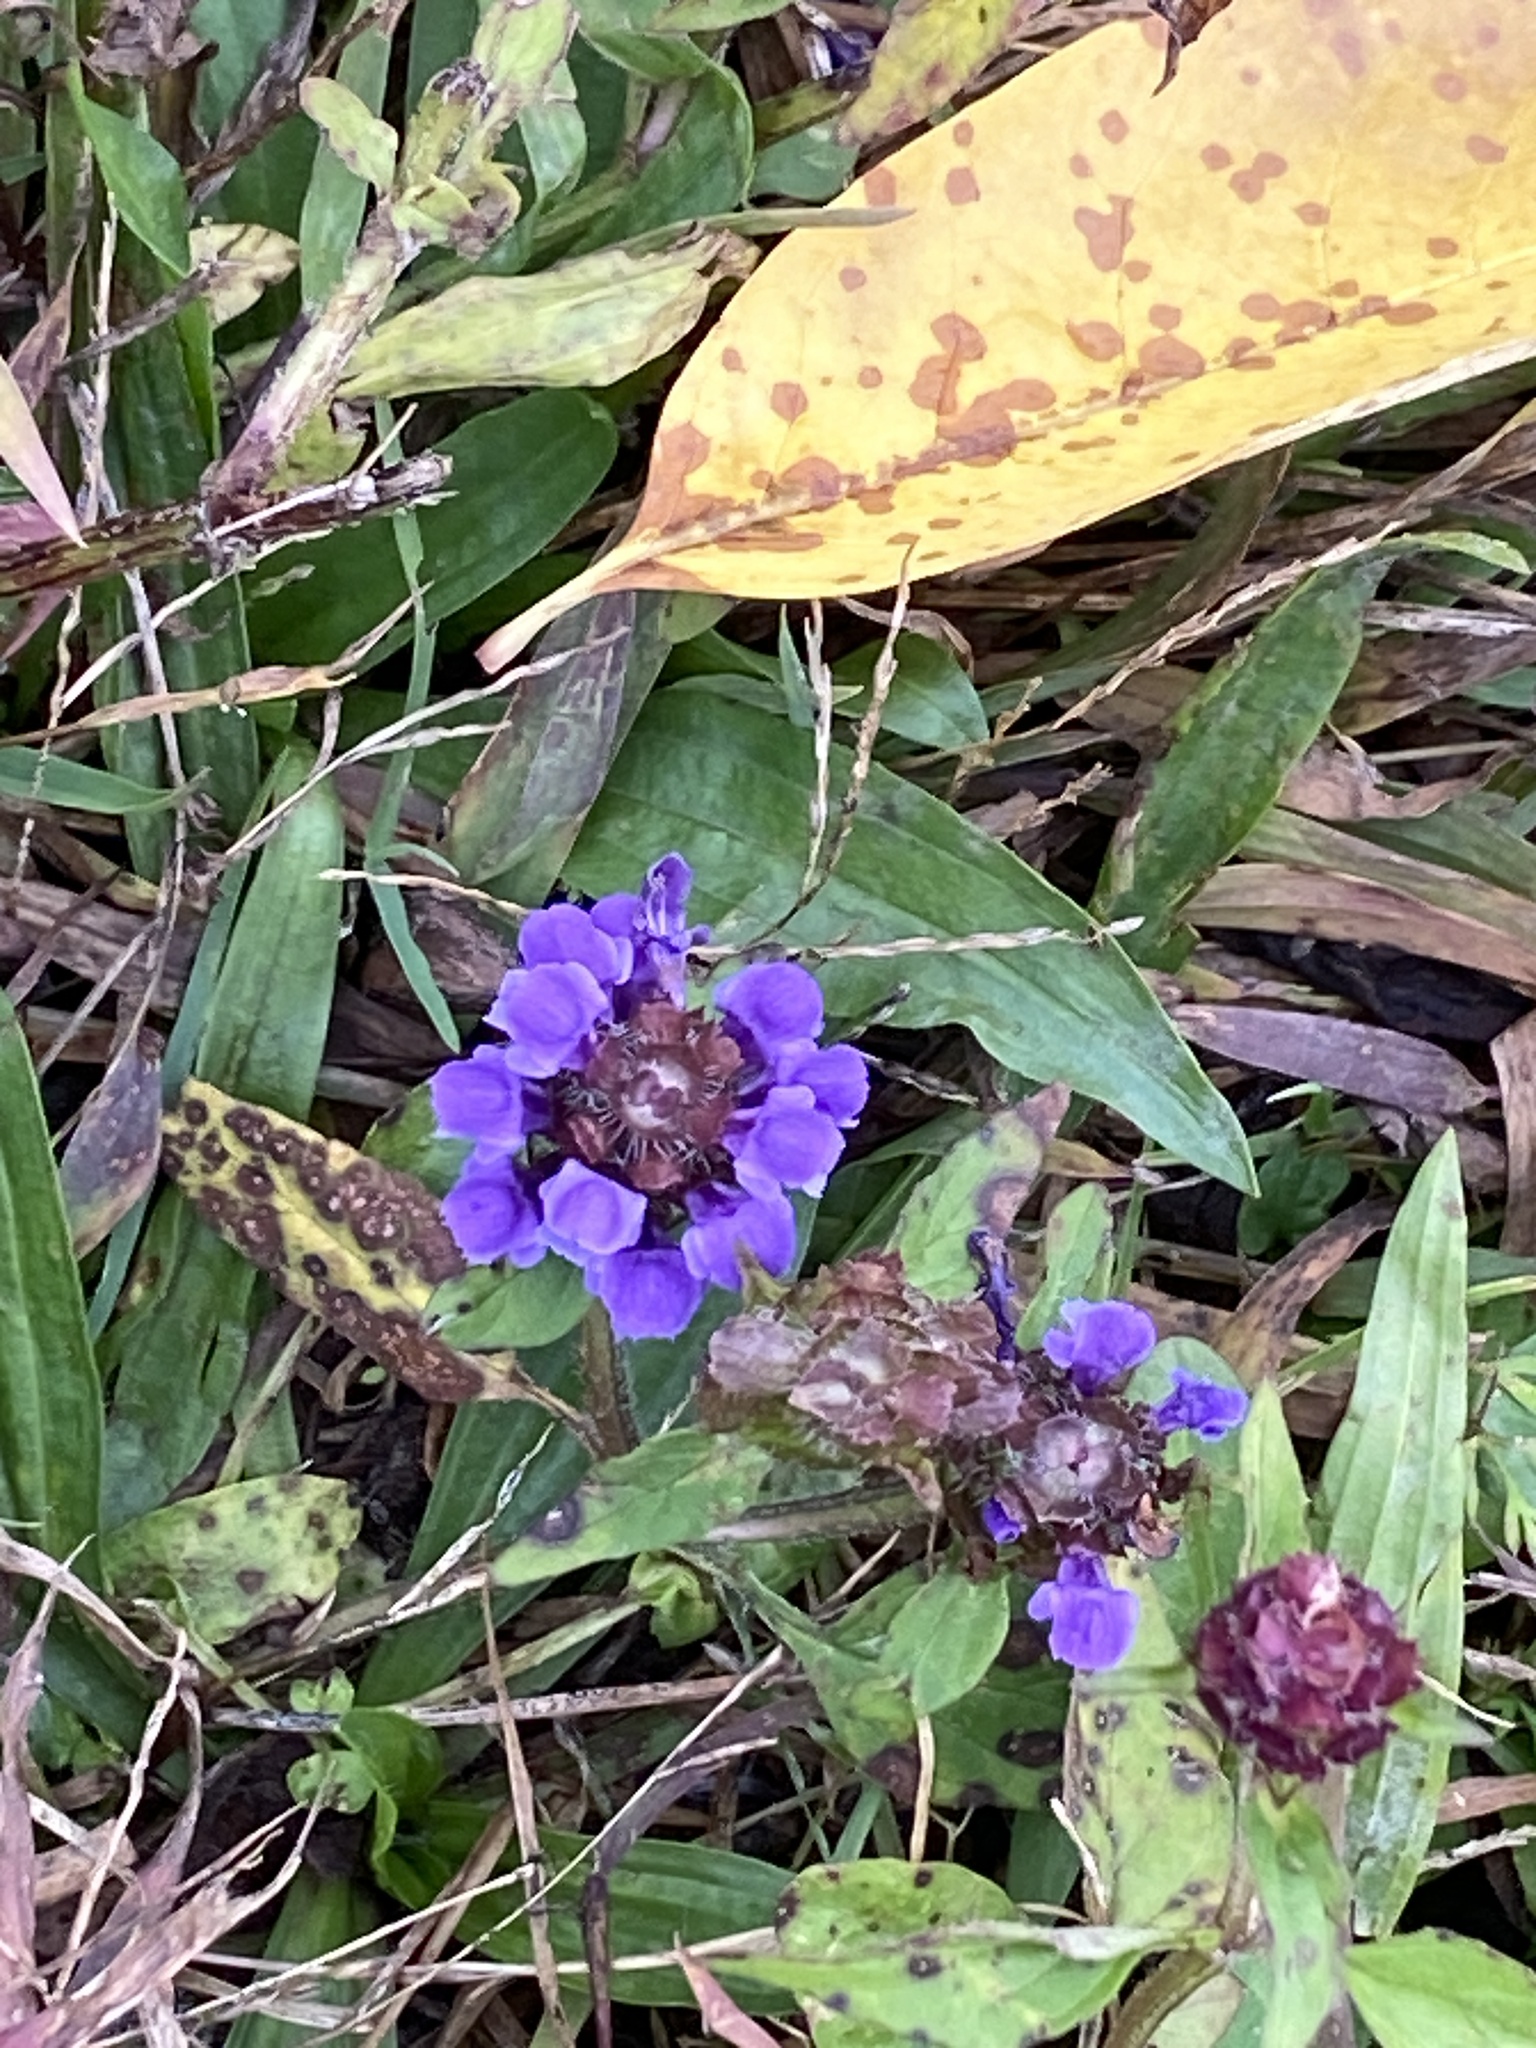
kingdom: Plantae
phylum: Tracheophyta
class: Magnoliopsida
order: Lamiales
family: Lamiaceae
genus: Prunella
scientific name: Prunella vulgaris
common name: Heal-all
